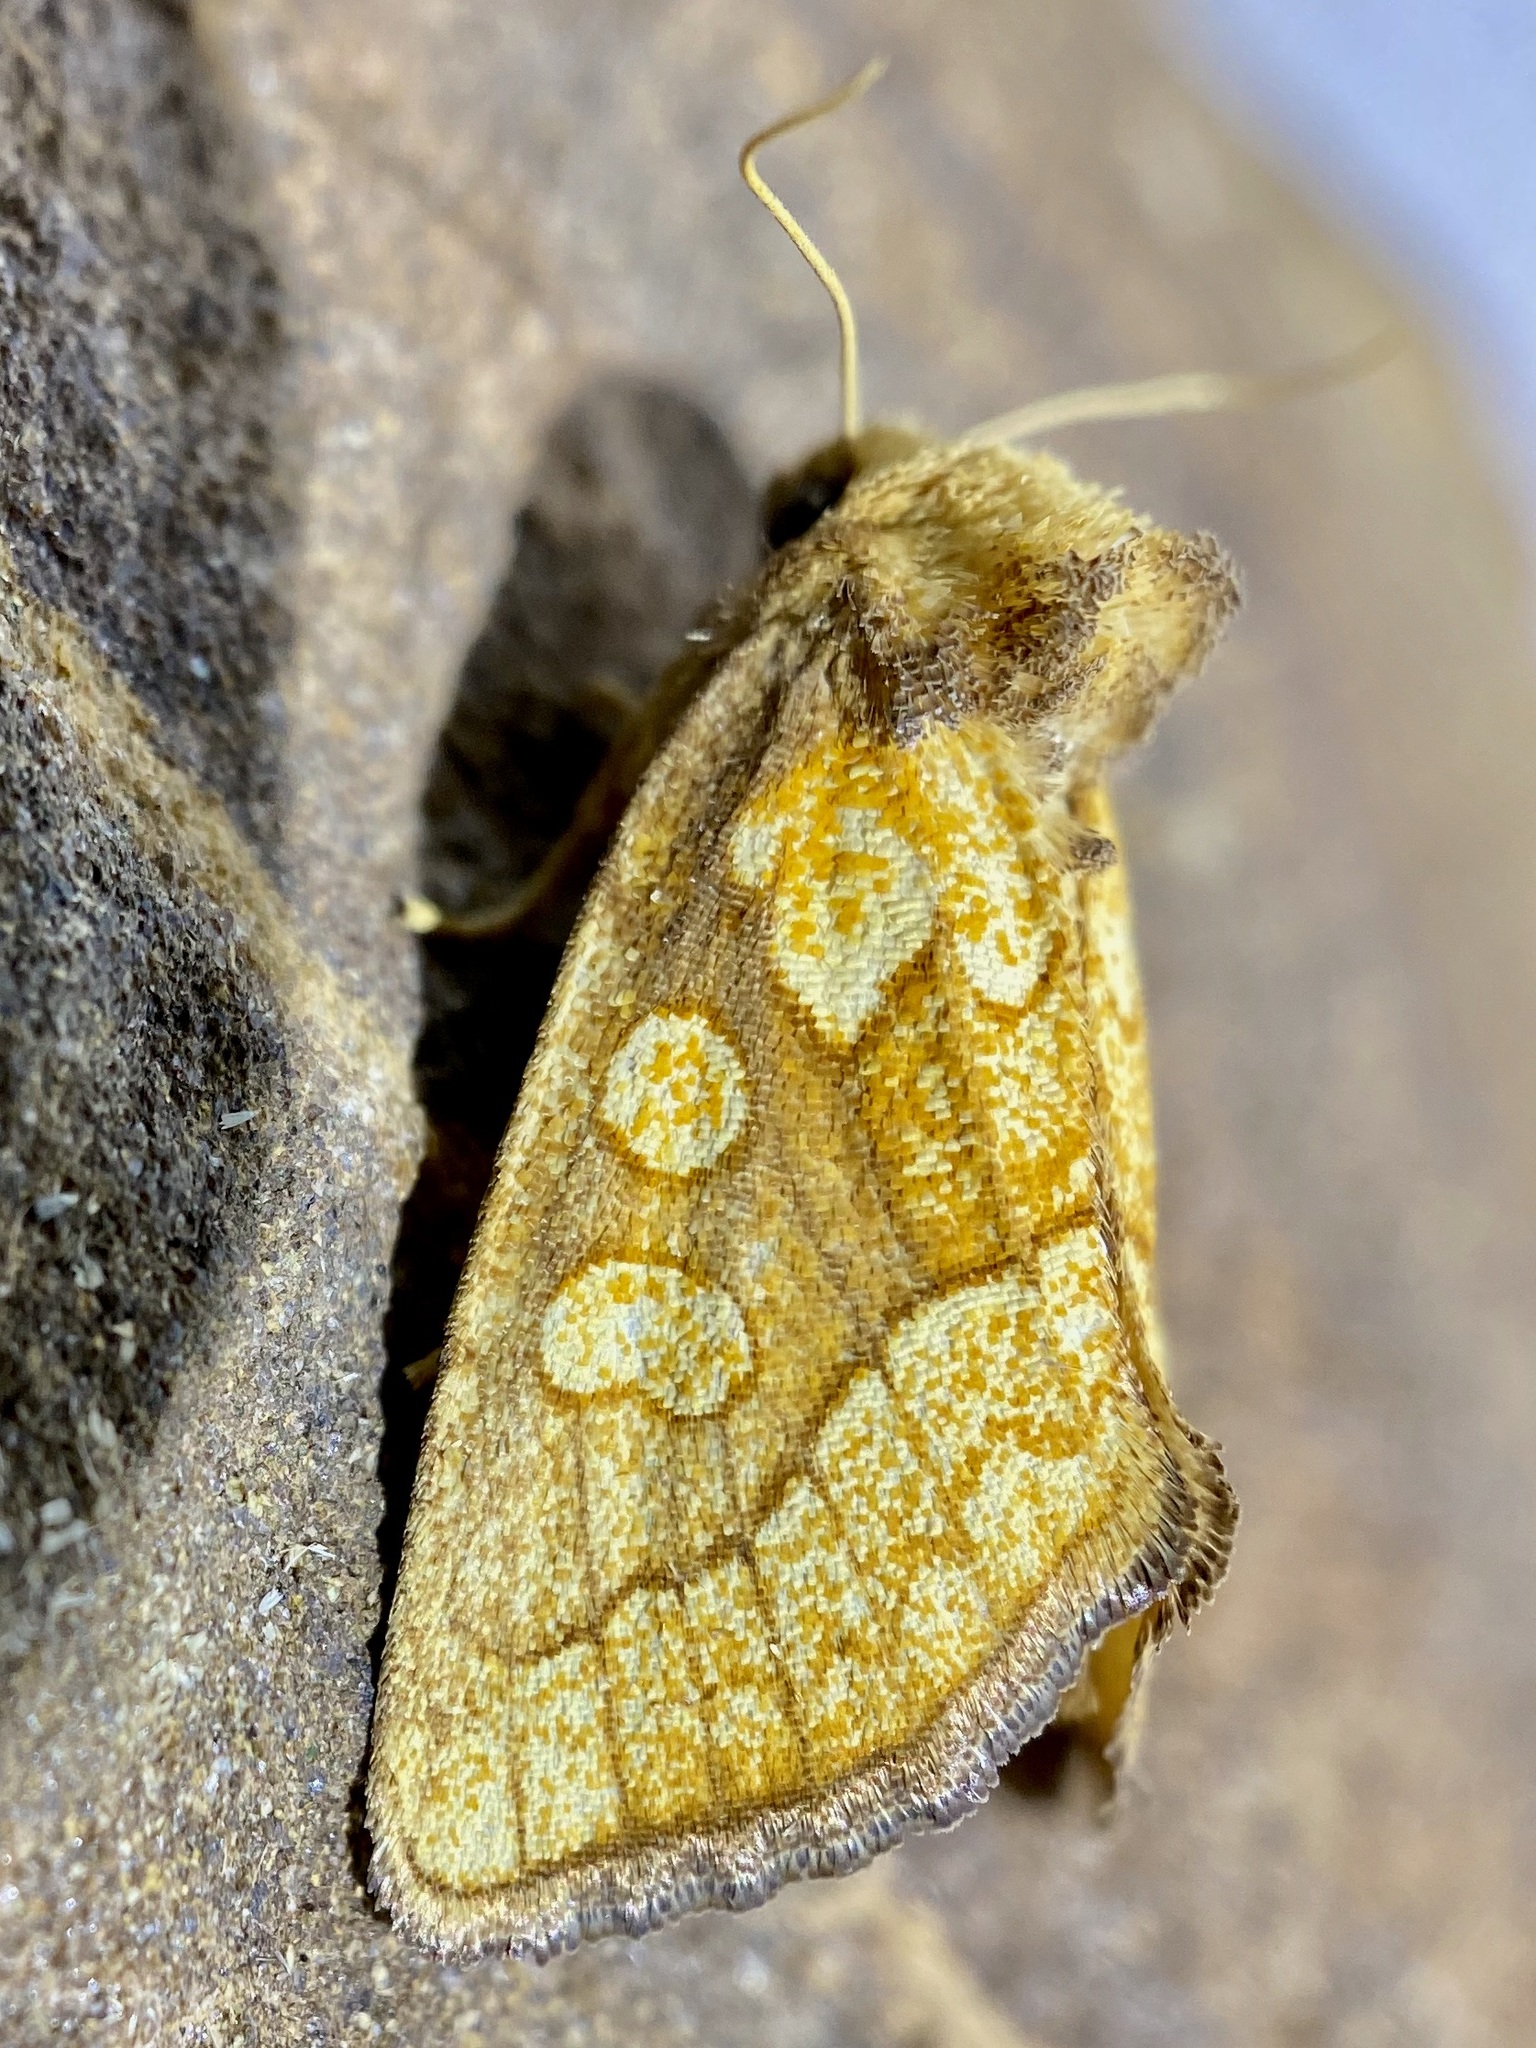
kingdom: Animalia
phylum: Arthropoda
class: Insecta
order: Lepidoptera
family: Noctuidae
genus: Nocloa
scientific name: Nocloa alcandra
